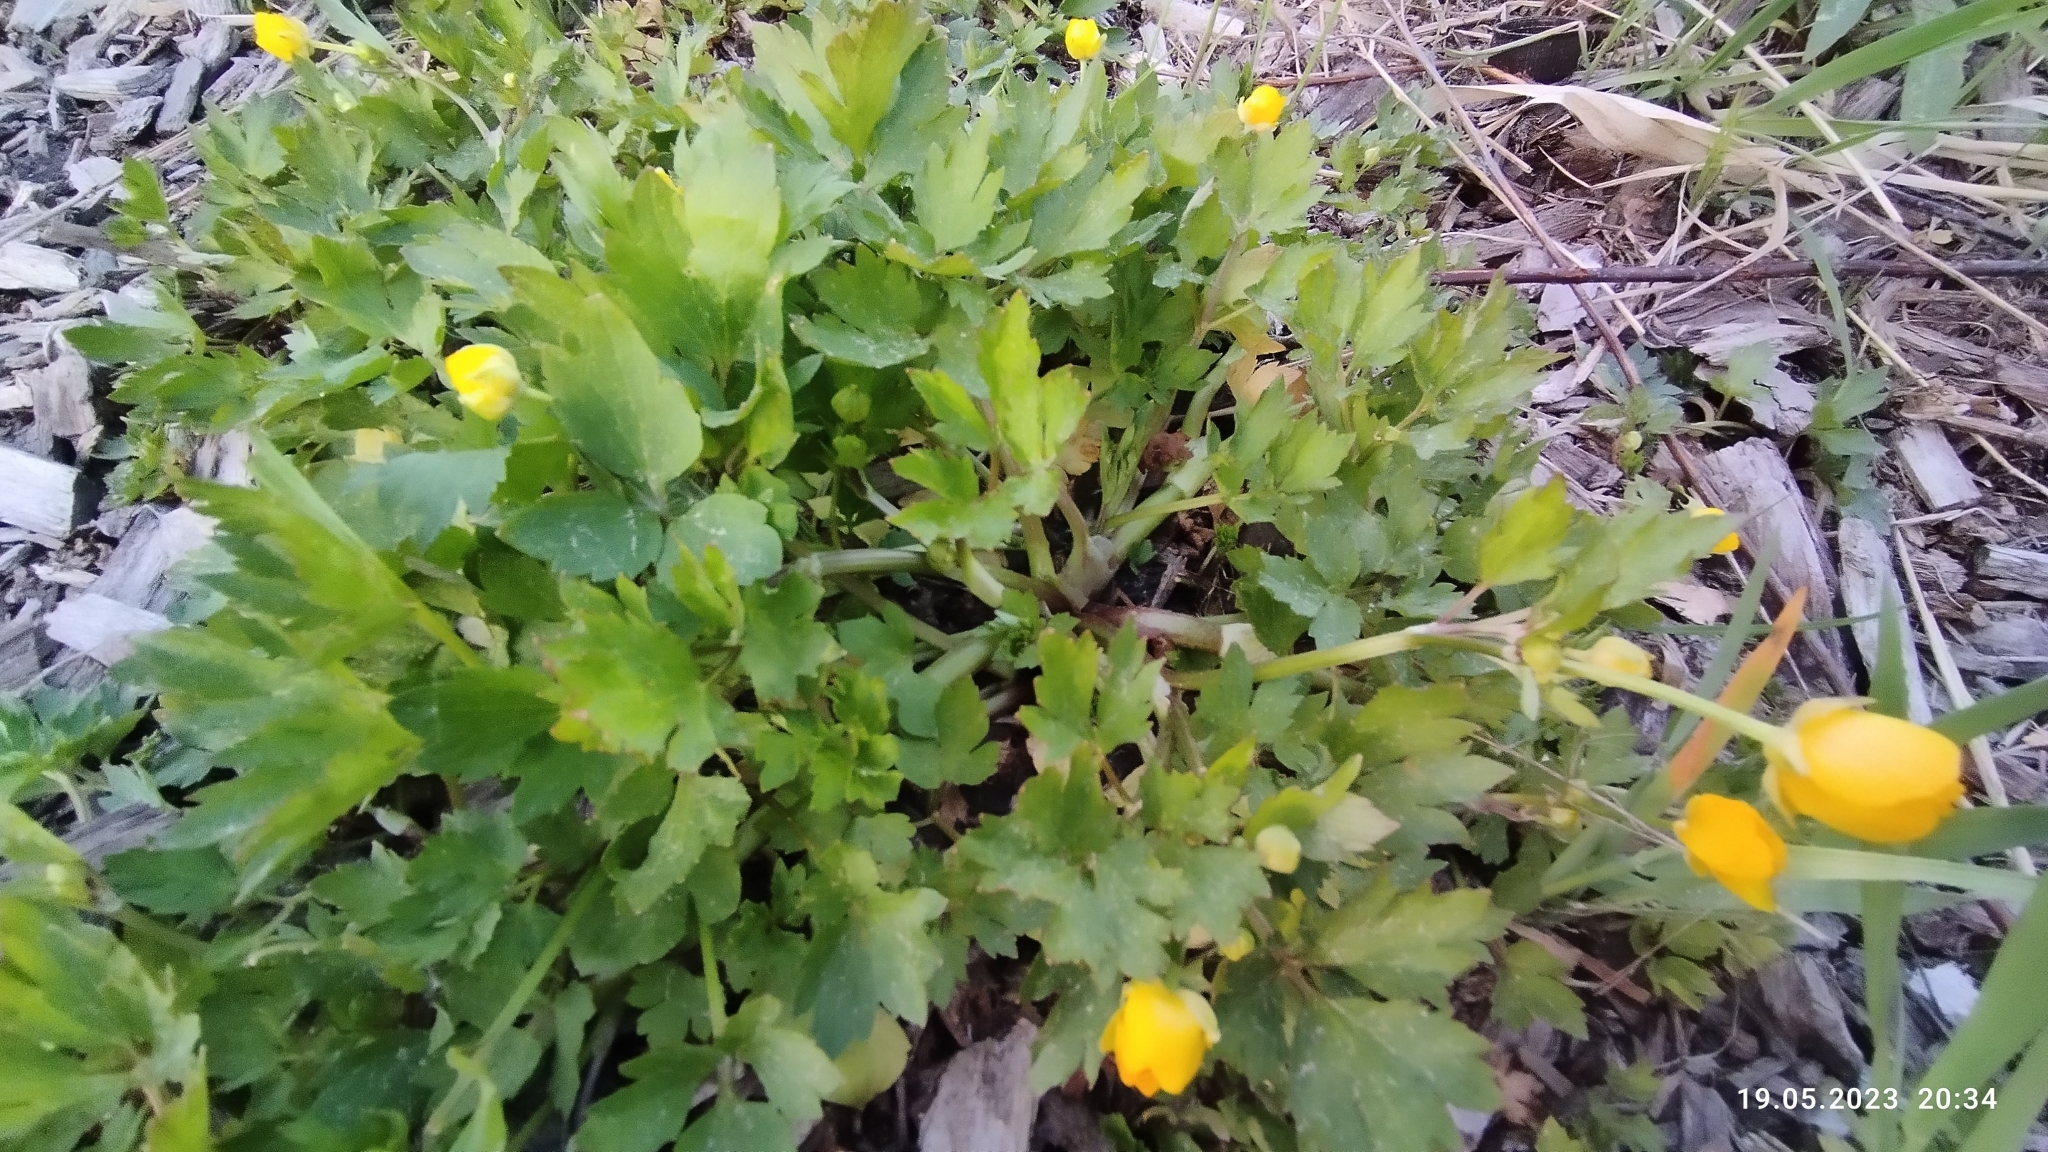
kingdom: Plantae
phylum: Tracheophyta
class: Magnoliopsida
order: Ranunculales
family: Ranunculaceae
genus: Ranunculus
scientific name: Ranunculus repens
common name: Creeping buttercup
